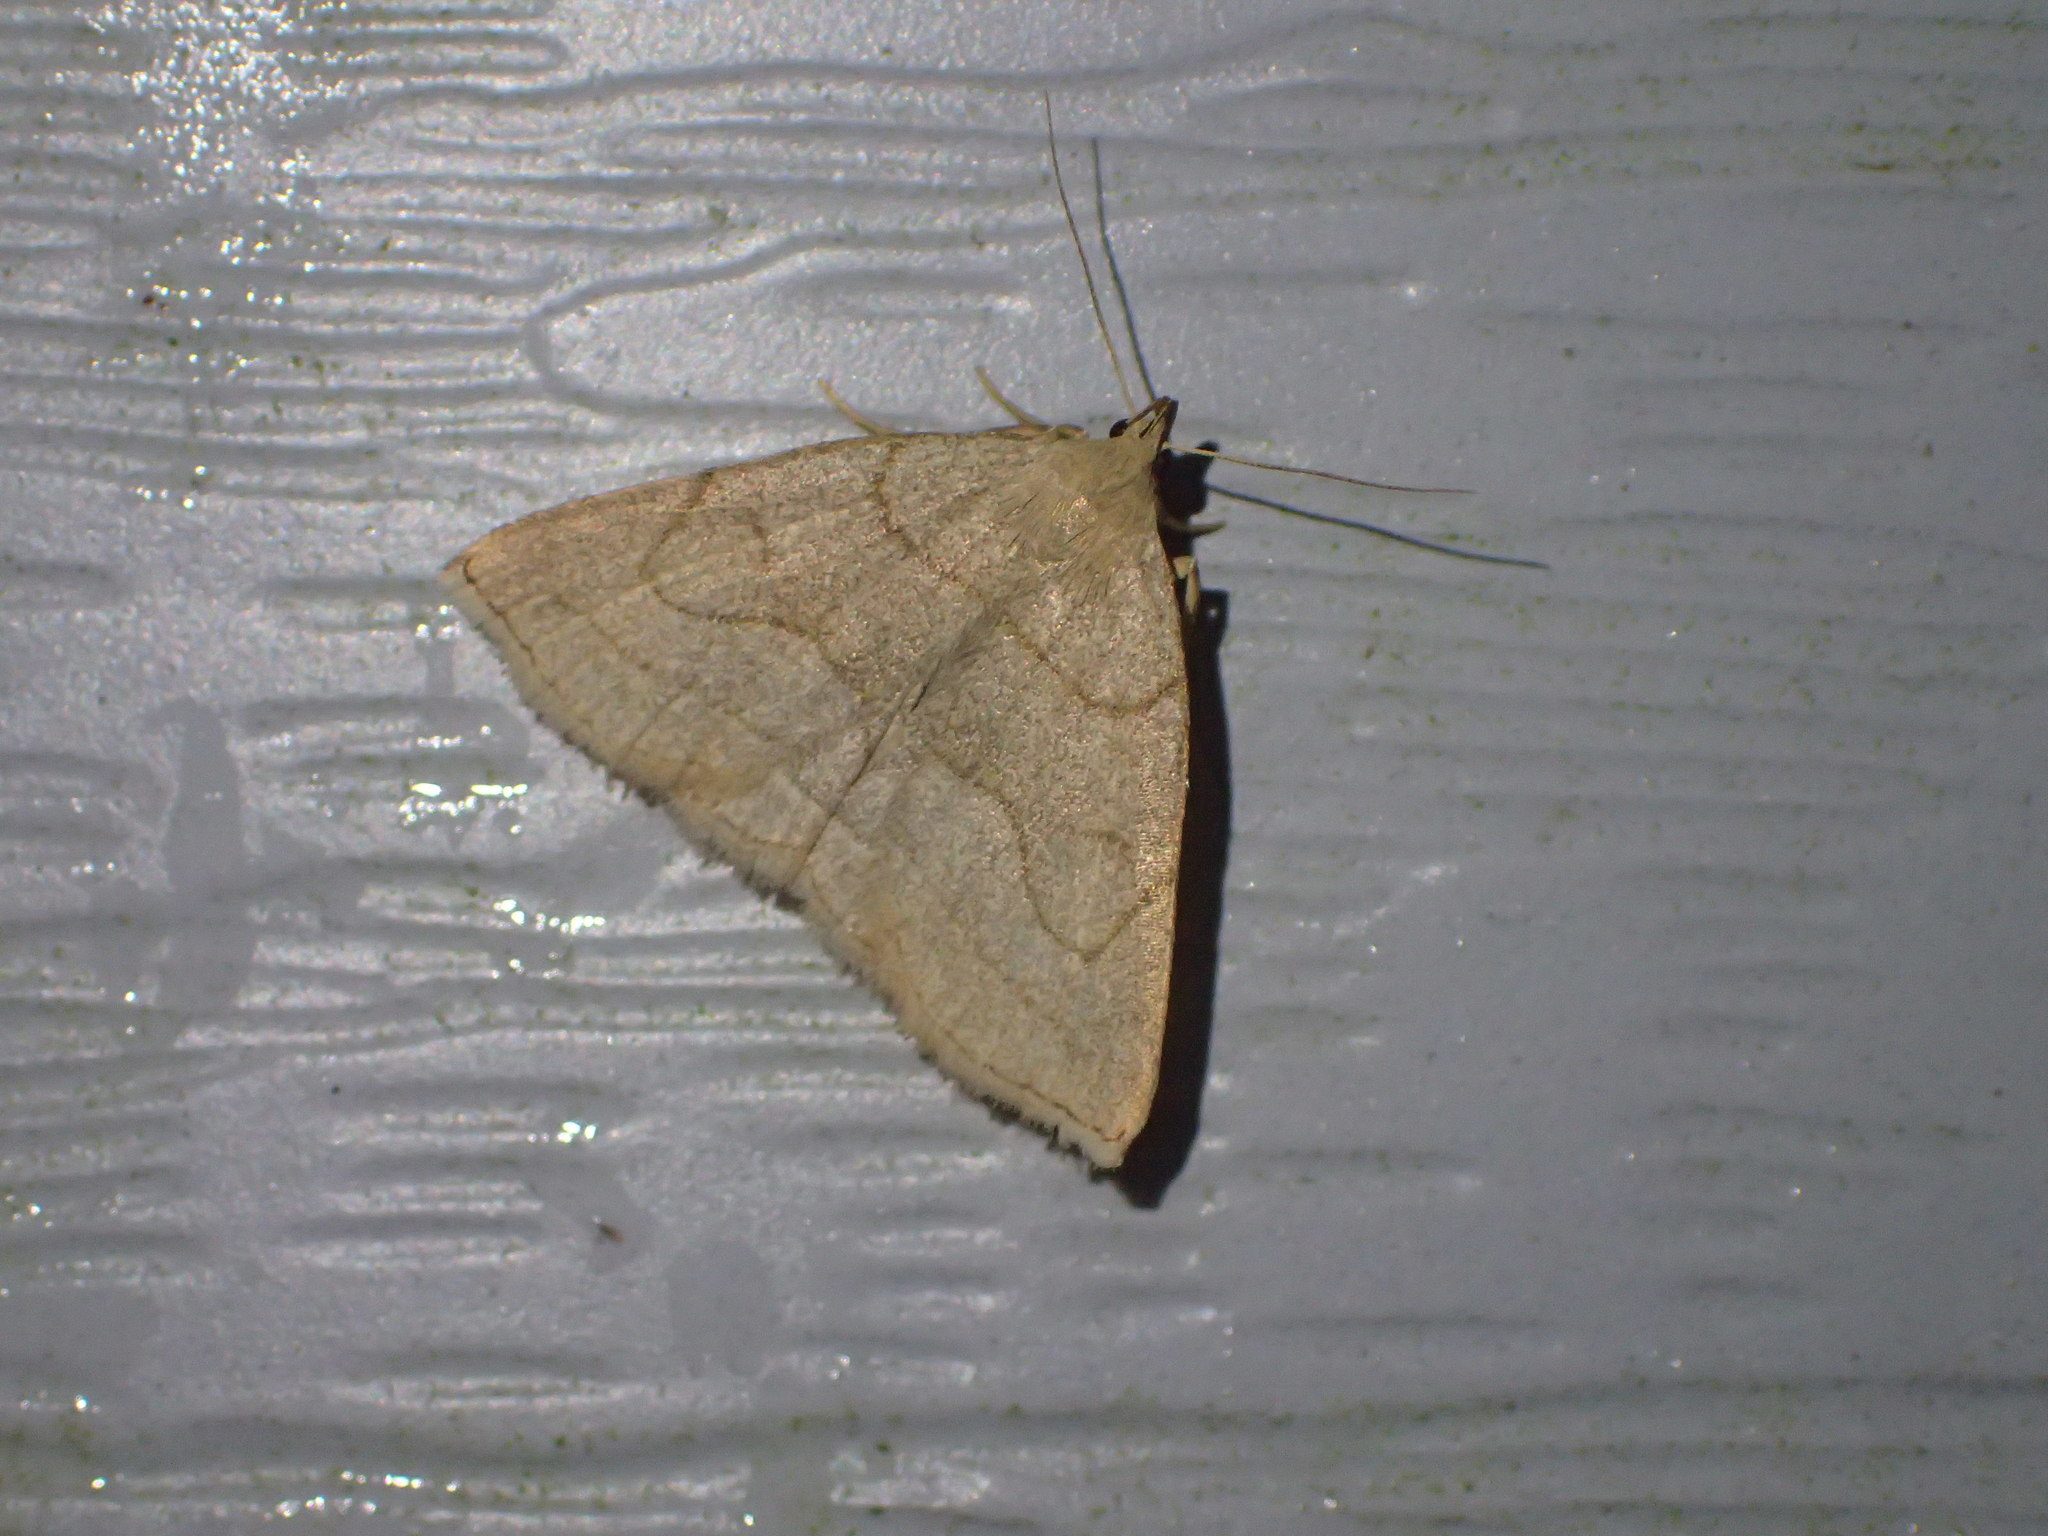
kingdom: Animalia
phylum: Arthropoda
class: Insecta
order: Lepidoptera
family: Erebidae
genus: Zanclognatha
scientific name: Zanclognatha pedipilalis
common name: Grayish fan-foot
